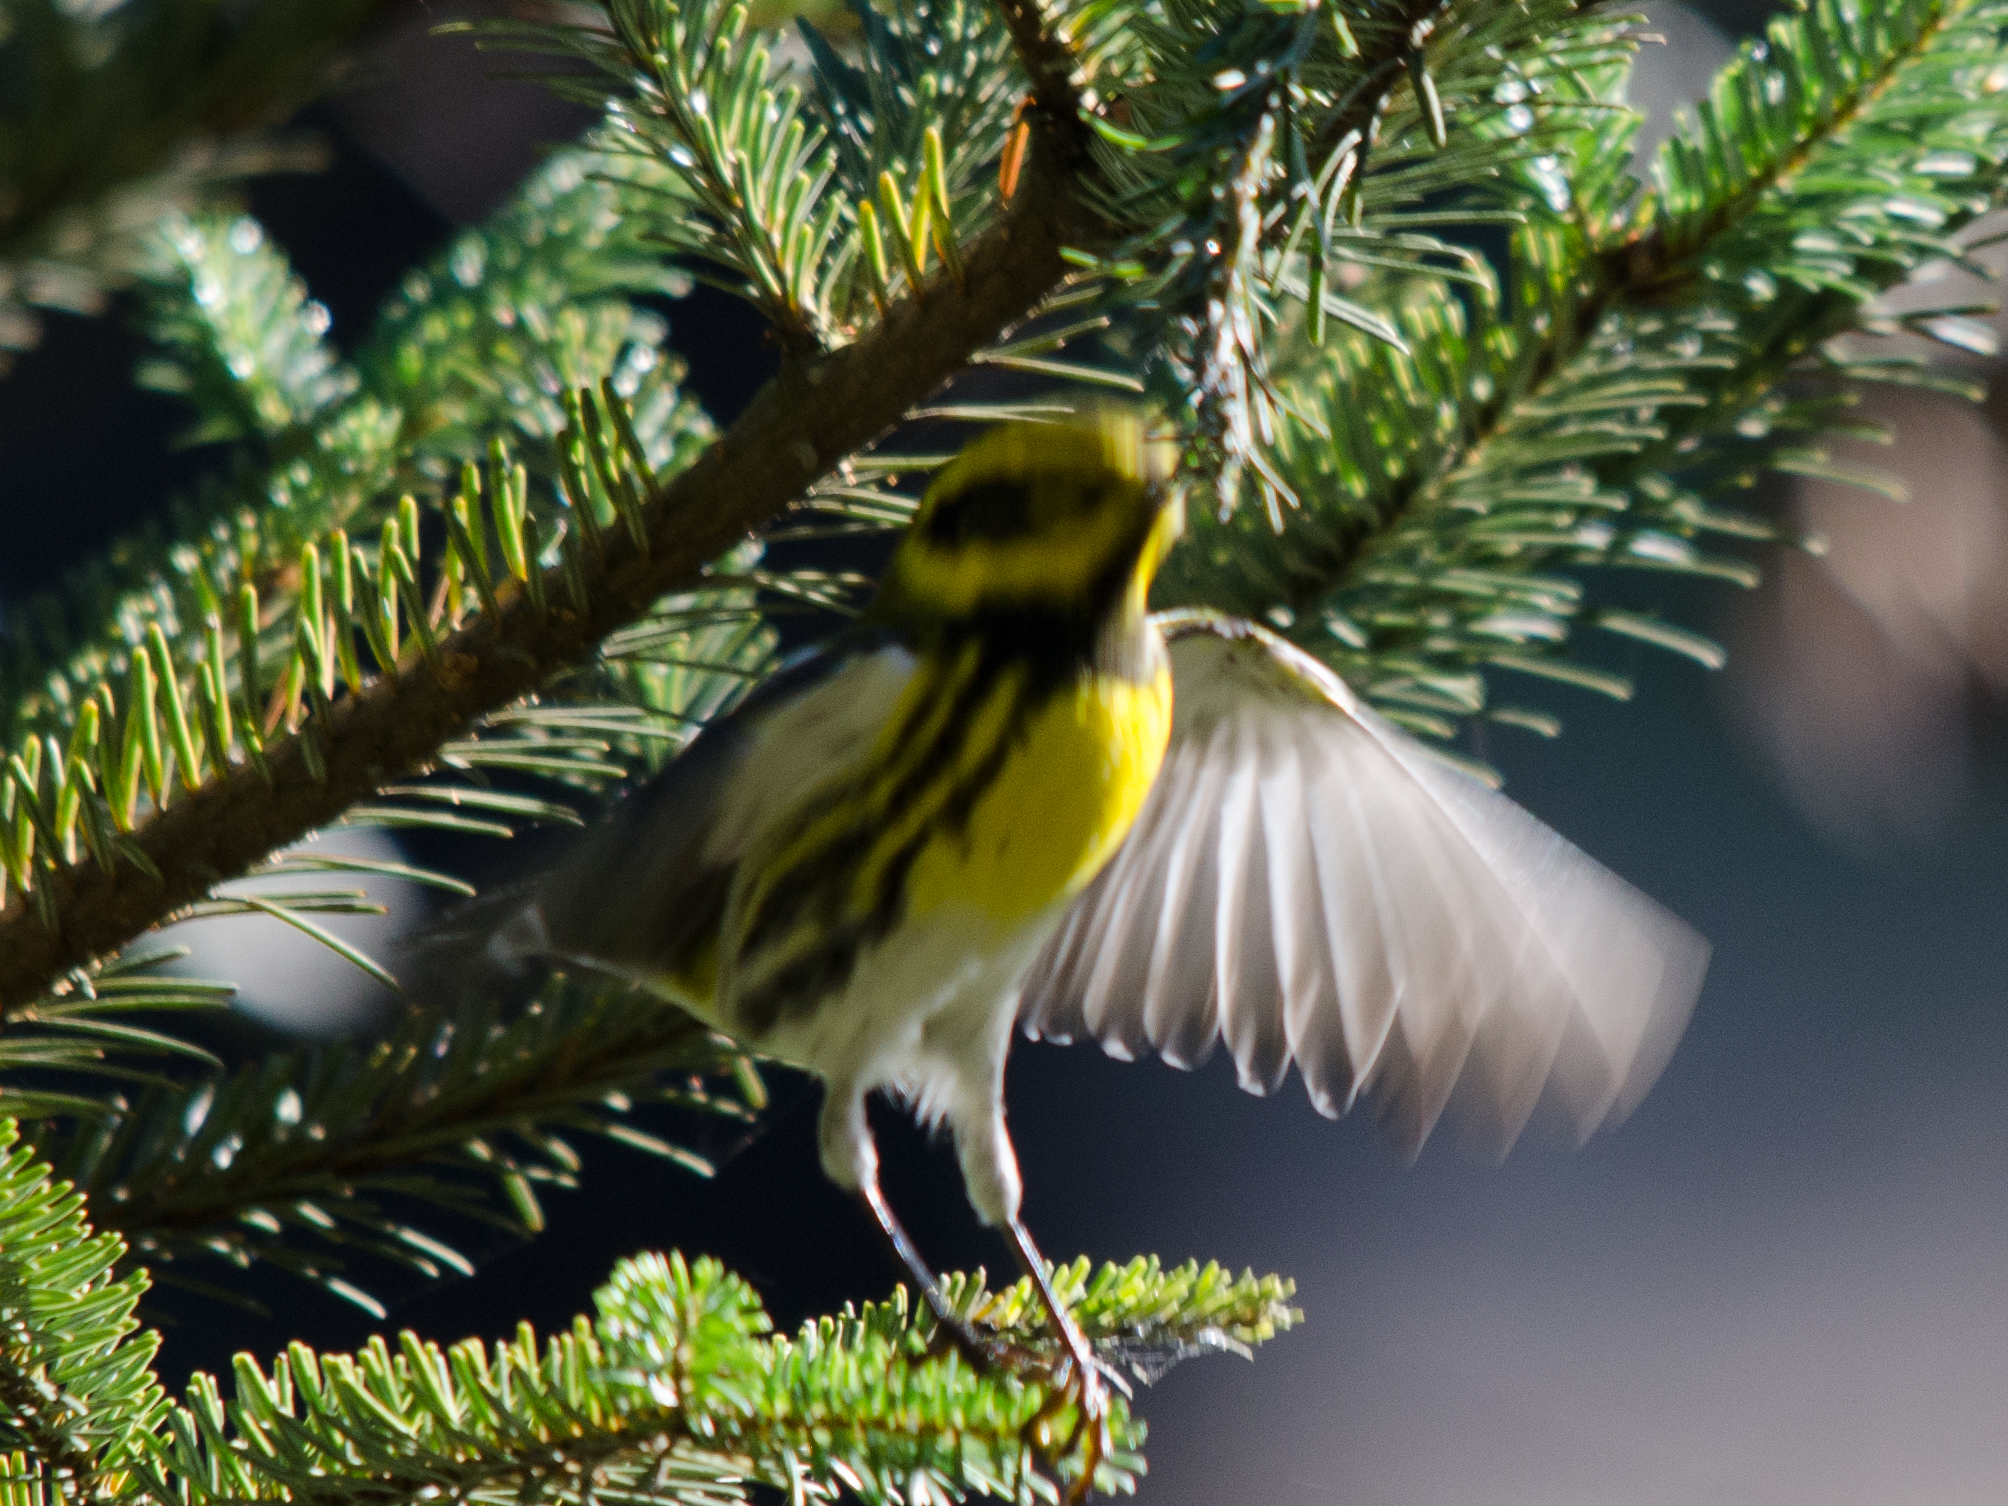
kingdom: Animalia
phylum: Chordata
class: Aves
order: Passeriformes
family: Parulidae
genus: Setophaga
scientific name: Setophaga townsendi
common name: Townsend's warbler
